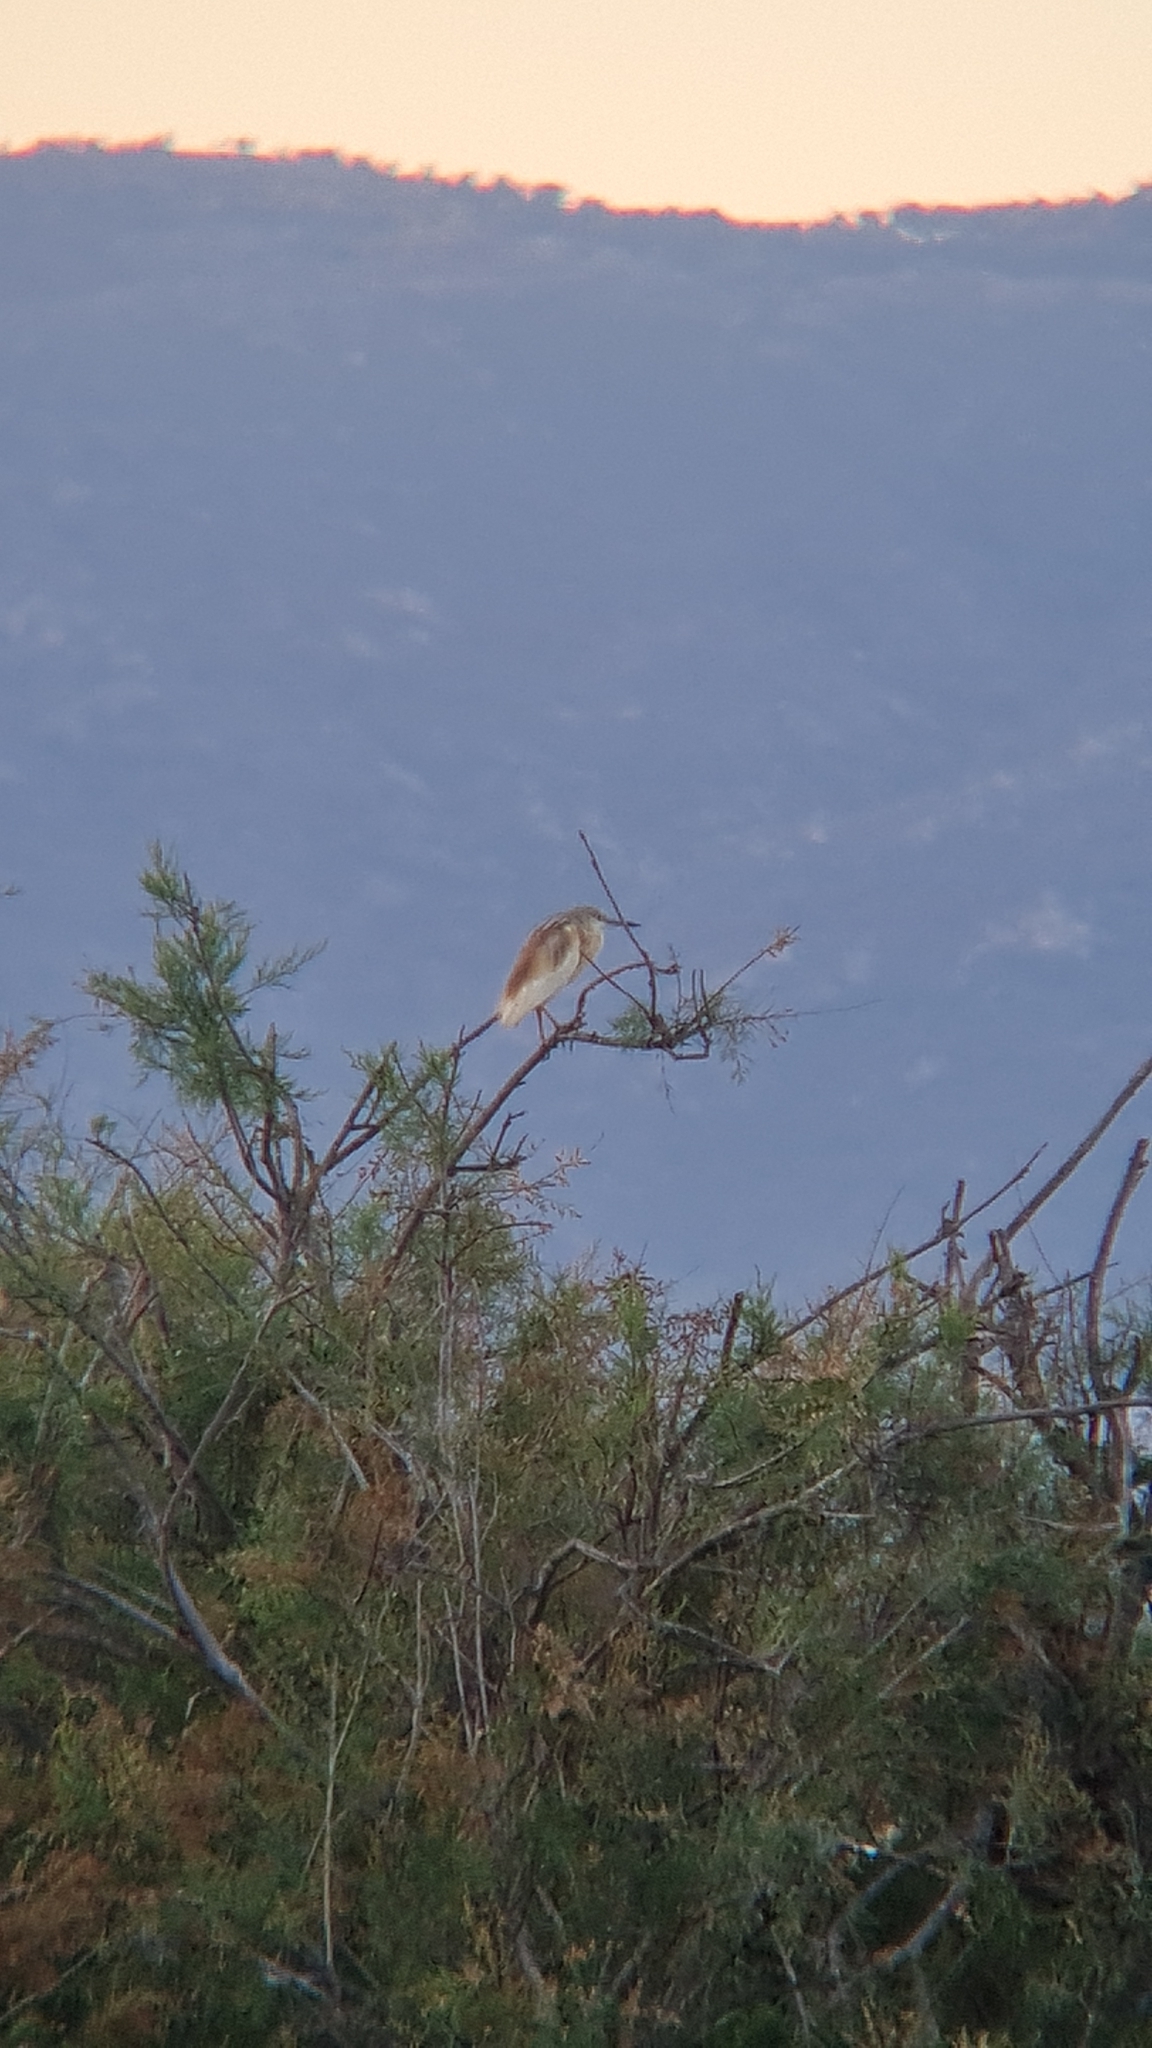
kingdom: Animalia
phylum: Chordata
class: Aves
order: Pelecaniformes
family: Ardeidae
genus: Ardeola
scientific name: Ardeola ralloides
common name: Squacco heron
